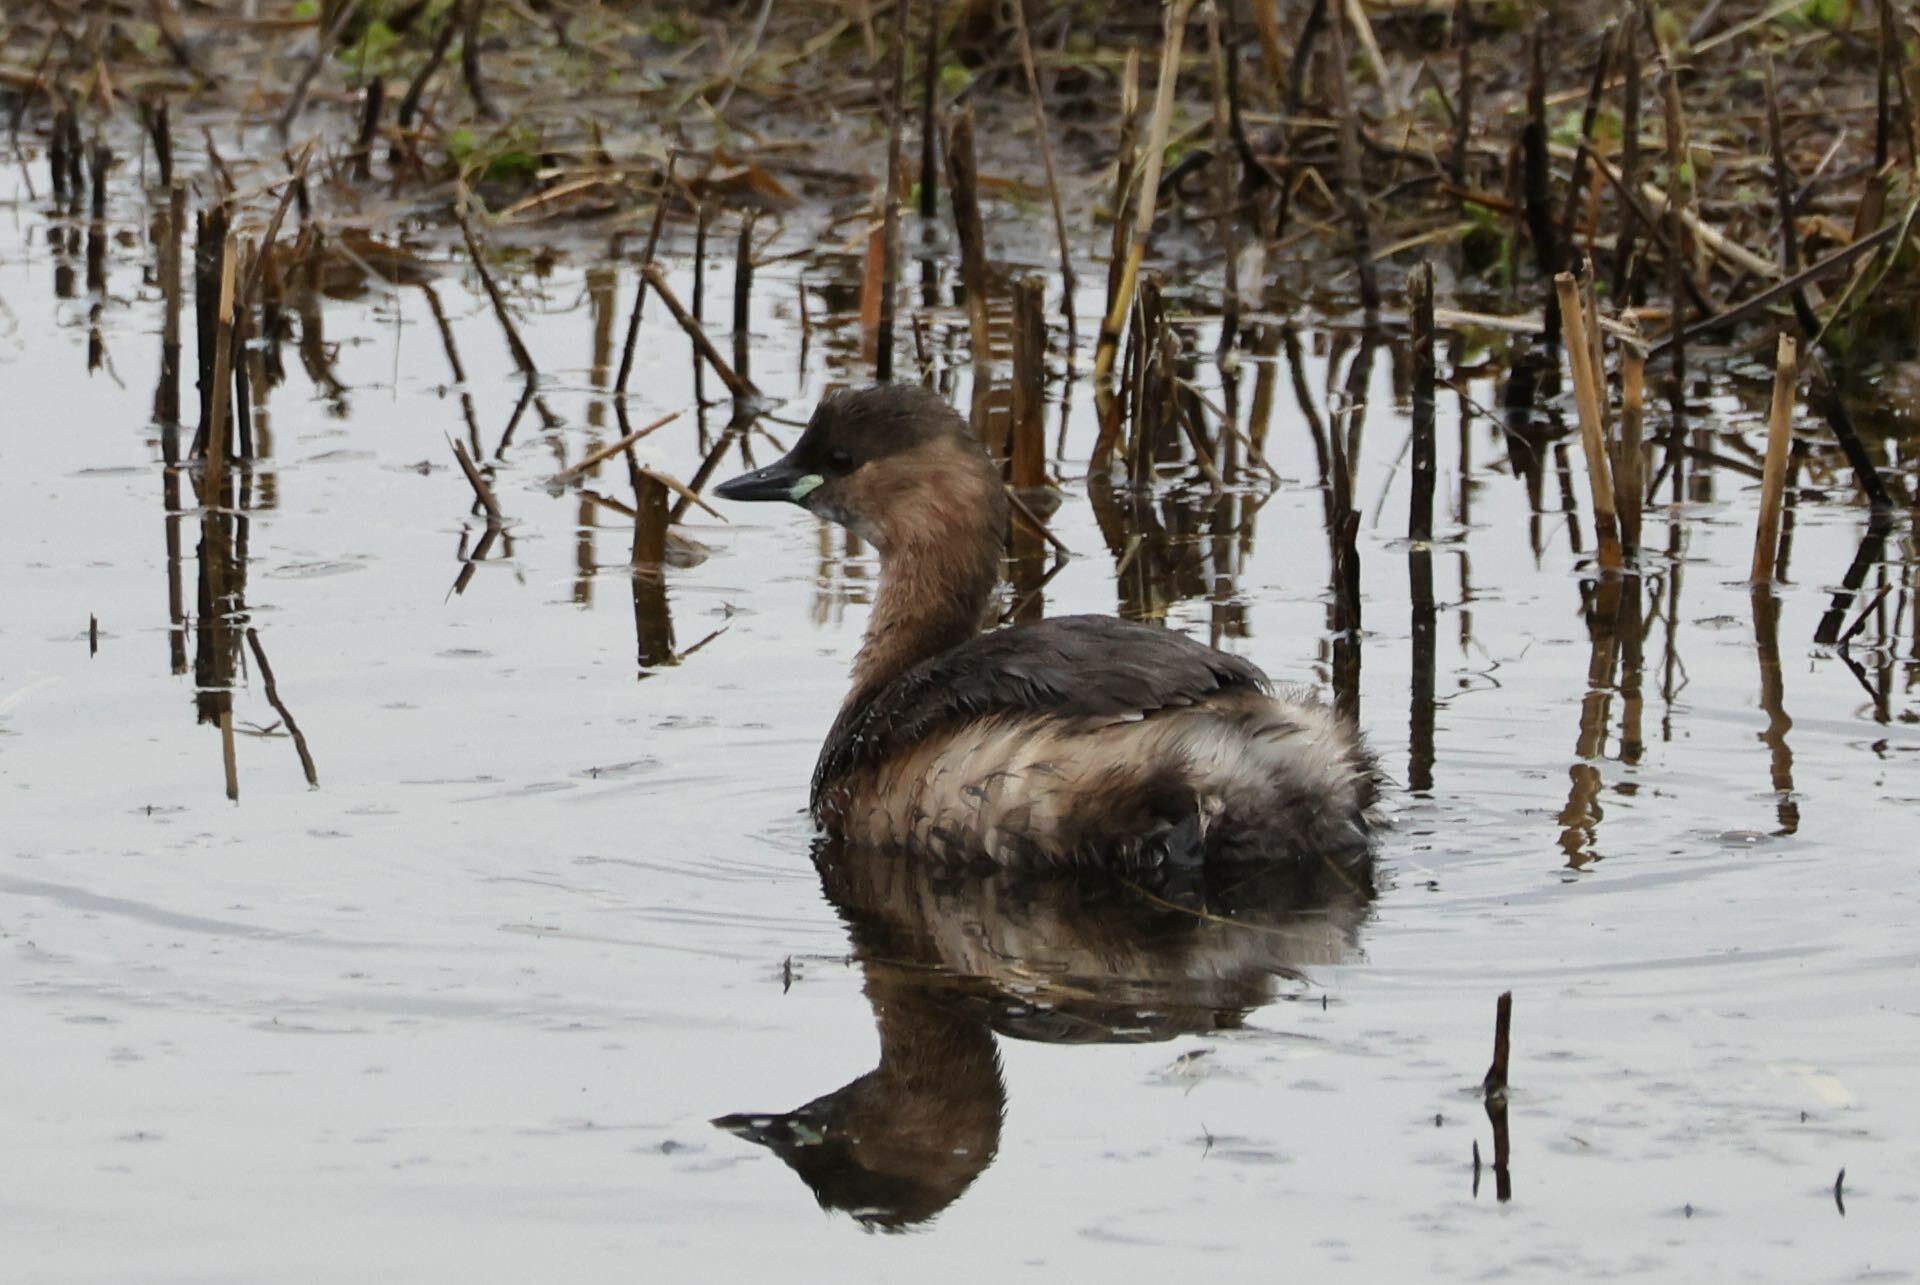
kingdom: Animalia
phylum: Chordata
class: Aves
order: Podicipediformes
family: Podicipedidae
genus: Tachybaptus
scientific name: Tachybaptus ruficollis
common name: Little grebe
